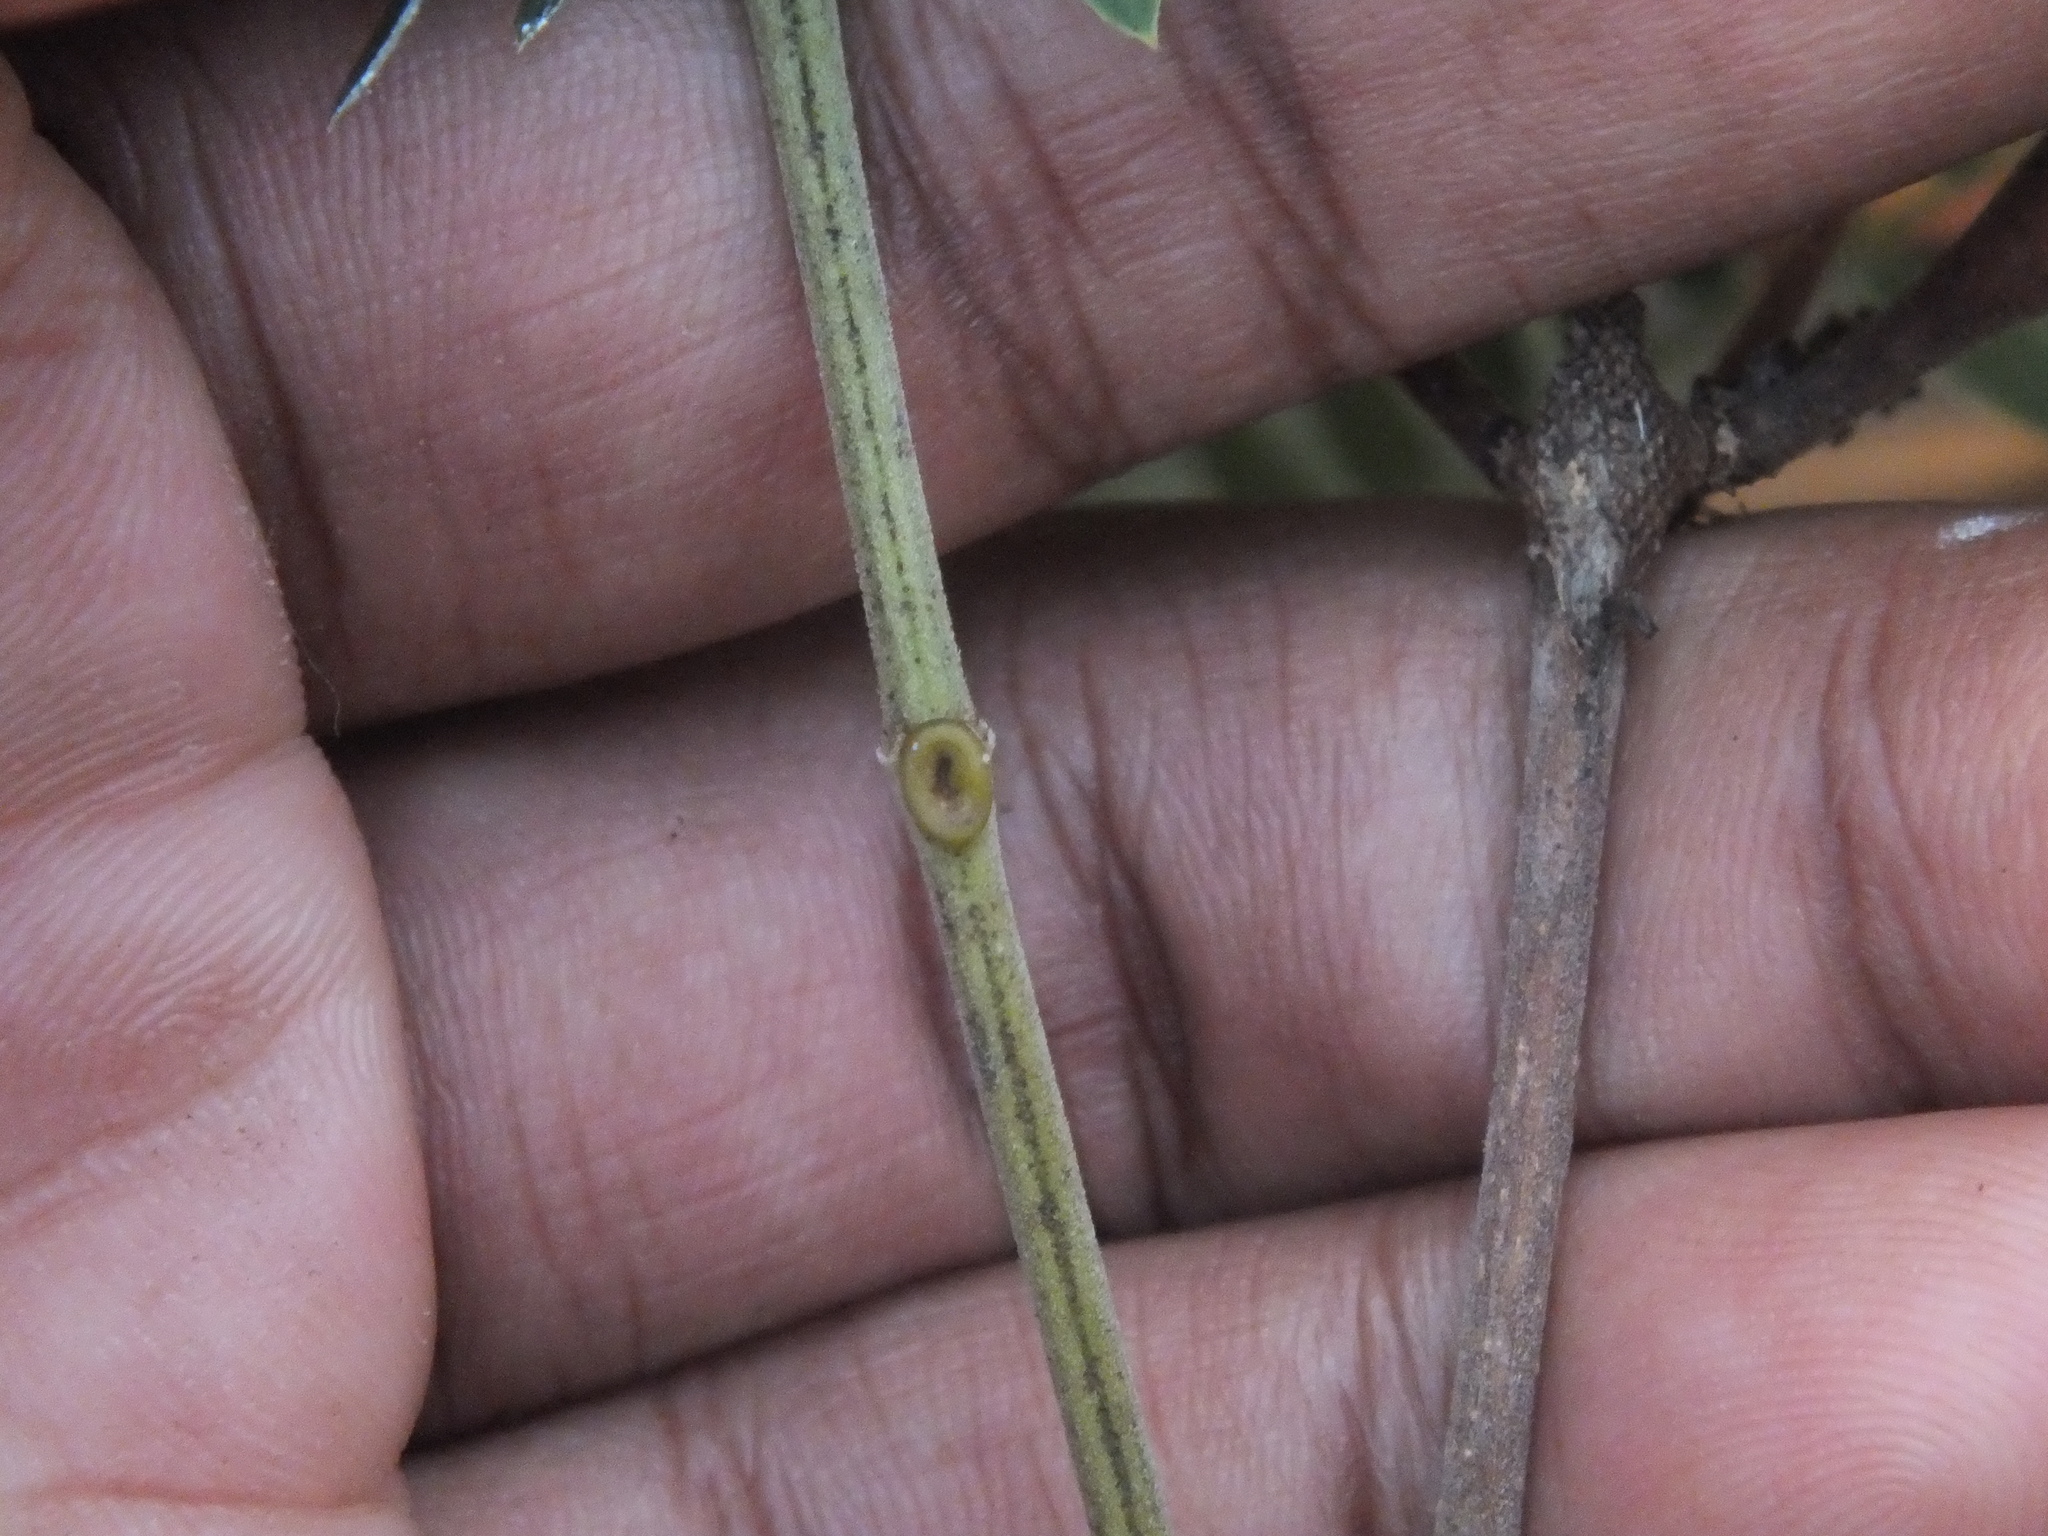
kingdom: Plantae
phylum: Tracheophyta
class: Magnoliopsida
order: Fabales
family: Fabaceae
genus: Leucaena
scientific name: Leucaena leucocephala
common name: White leadtree
